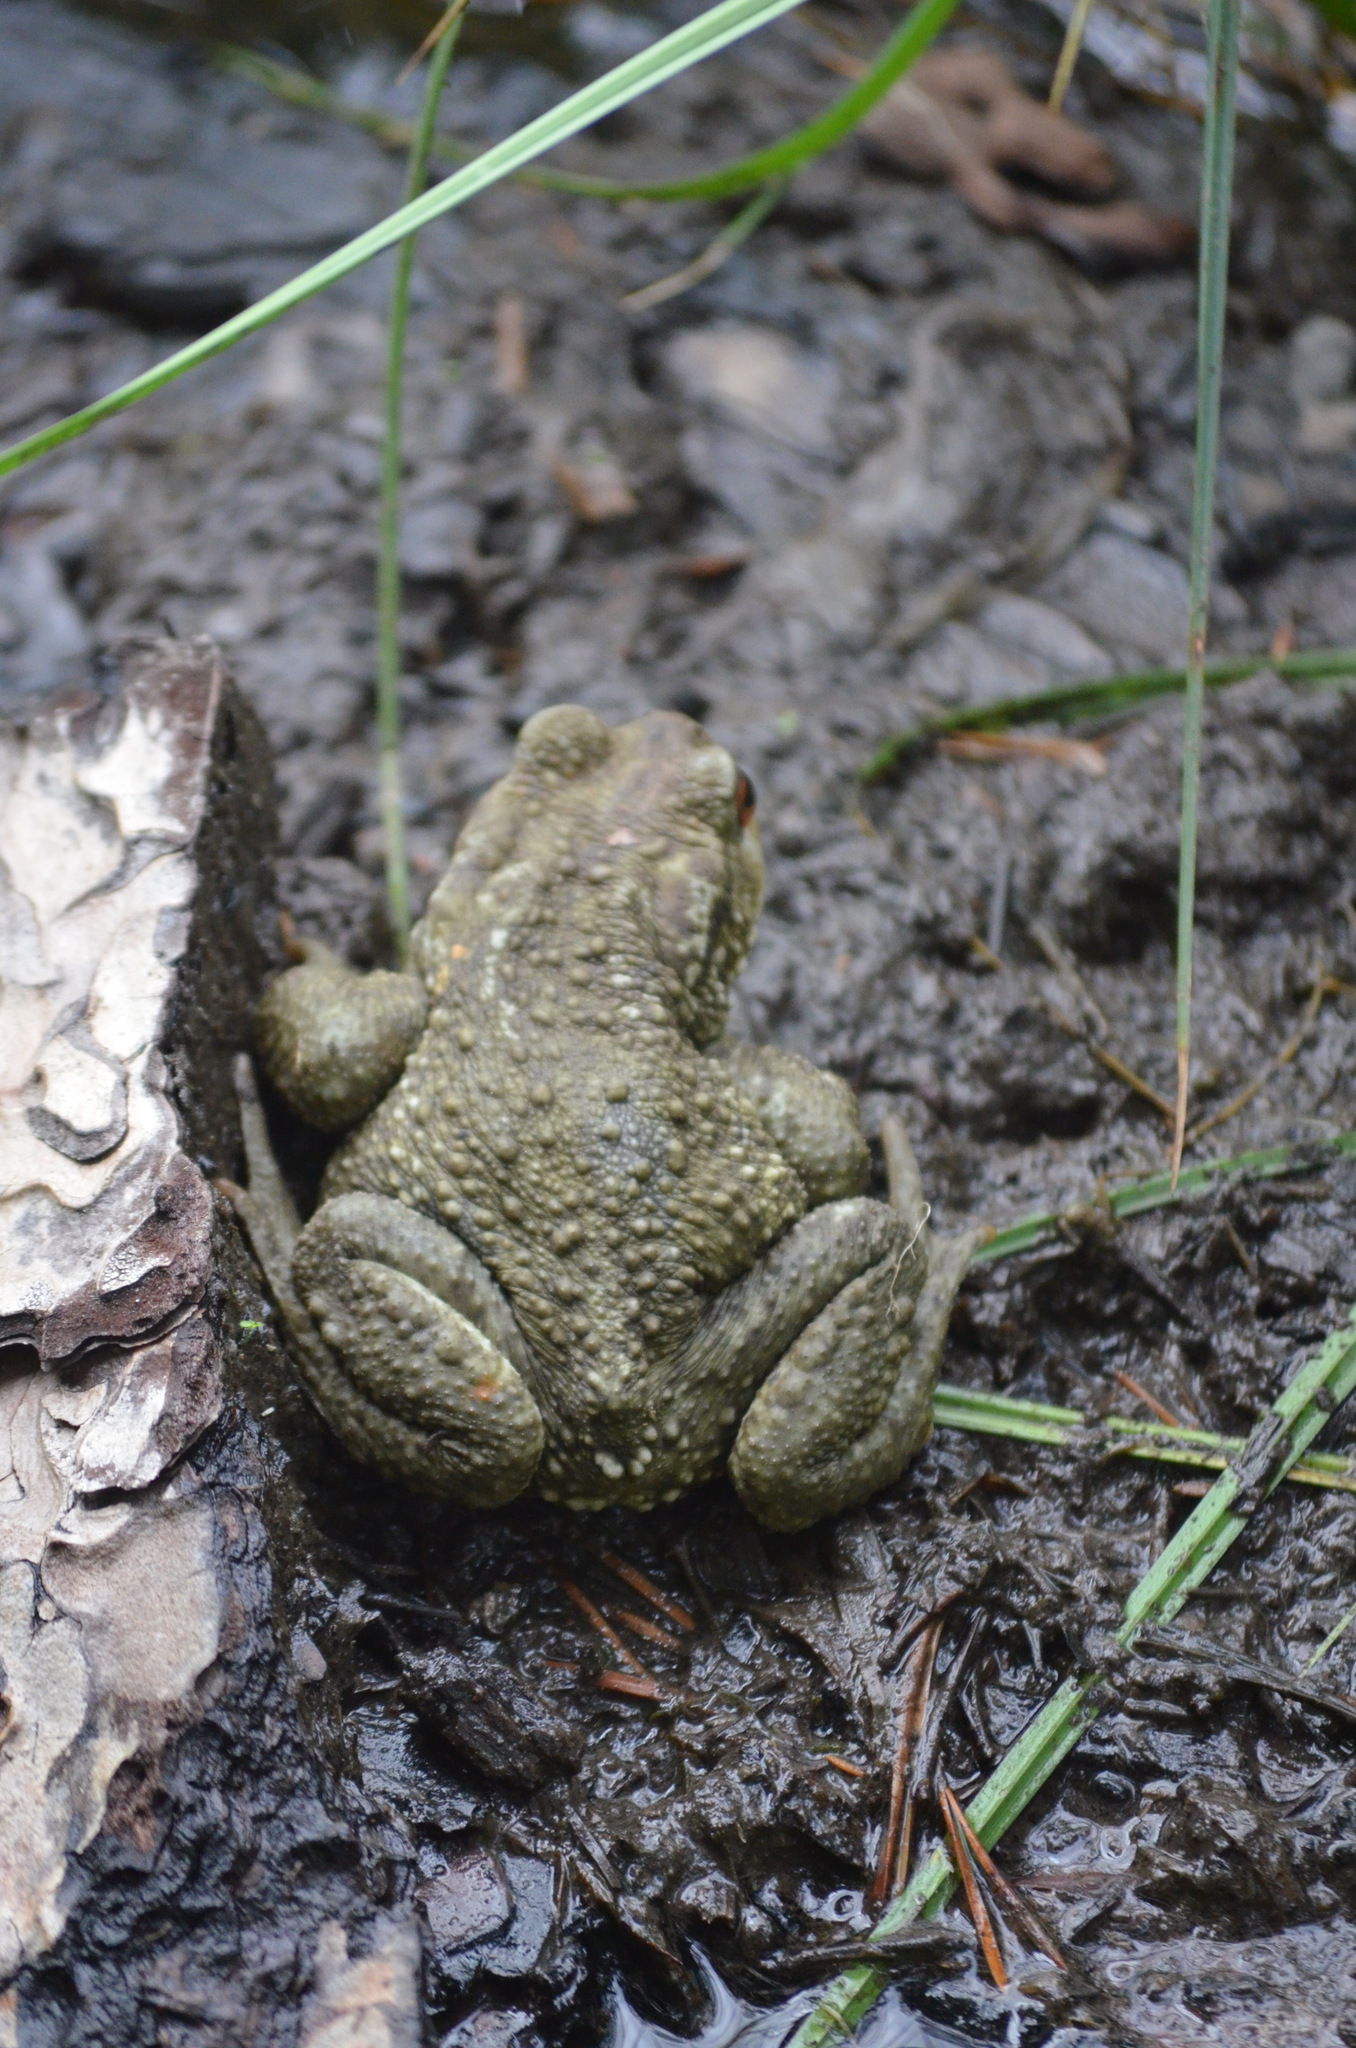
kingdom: Animalia
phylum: Chordata
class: Amphibia
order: Anura
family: Bufonidae
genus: Bufo
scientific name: Bufo spinosus
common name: Western common toad
